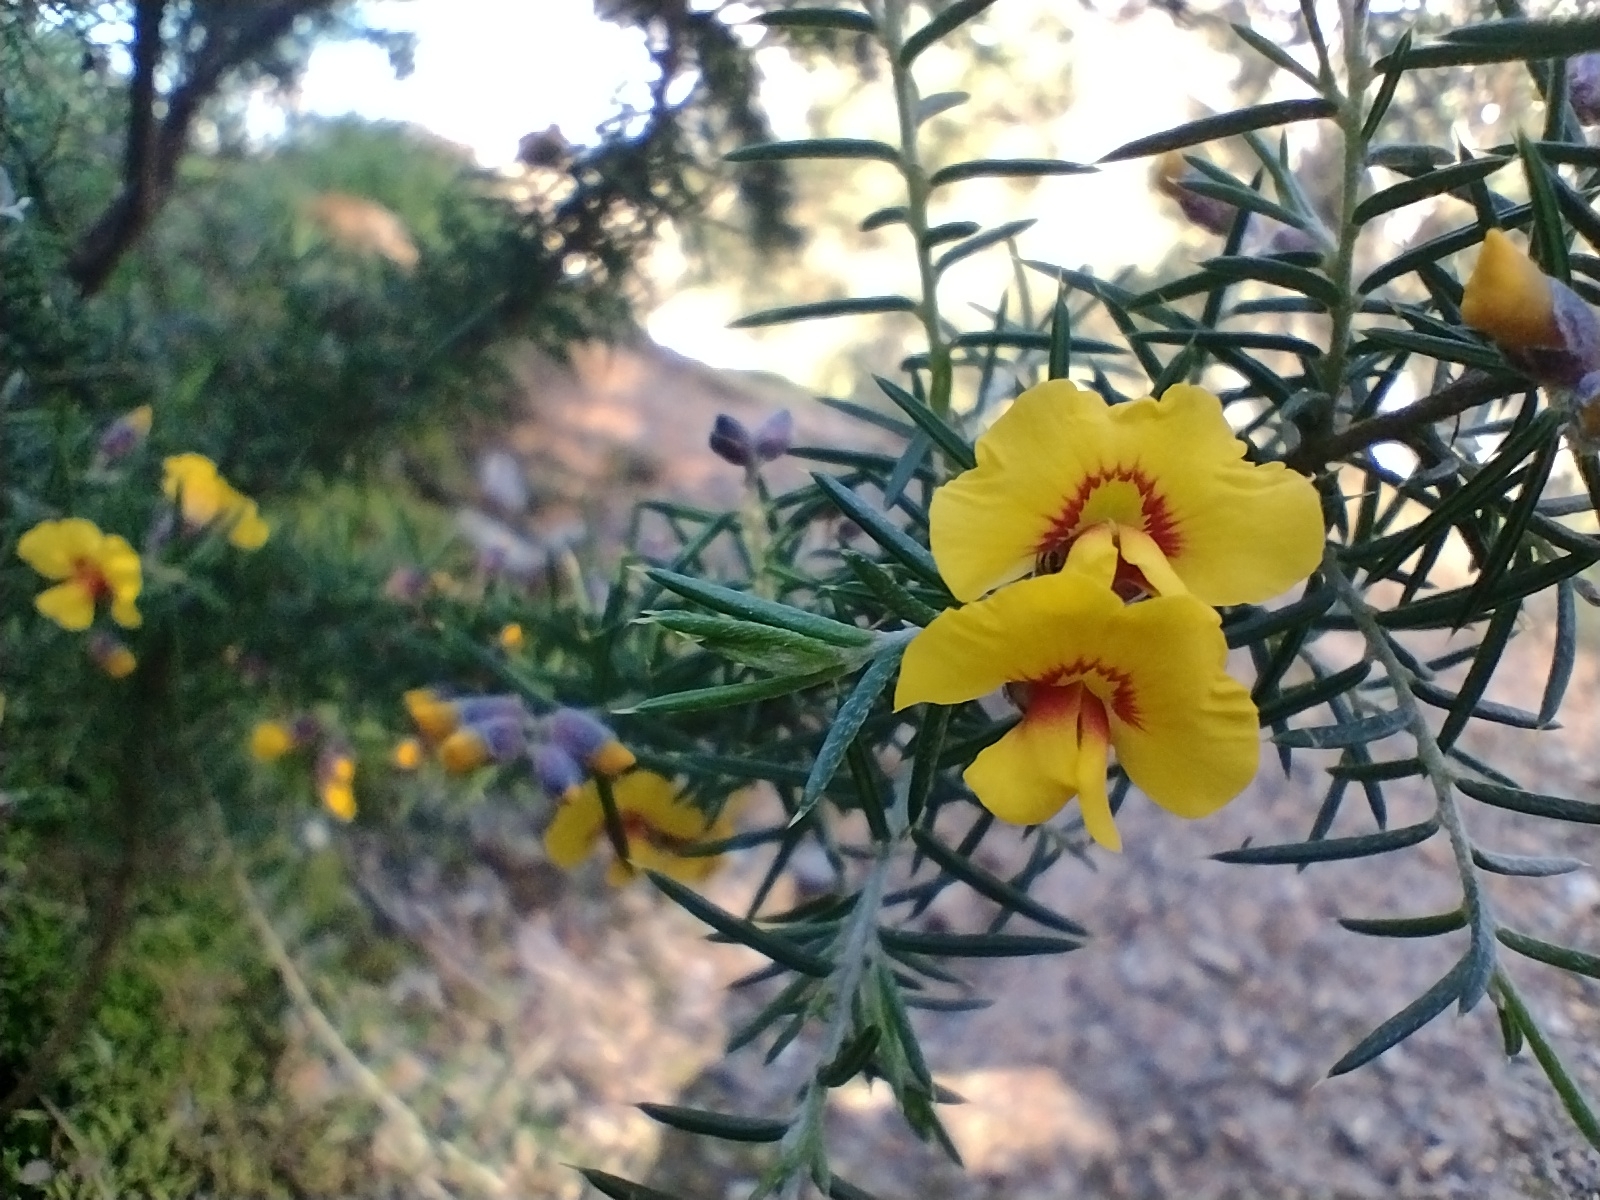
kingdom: Plantae
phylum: Tracheophyta
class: Magnoliopsida
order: Fabales
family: Fabaceae
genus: Dillwynia
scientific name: Dillwynia sieberi
